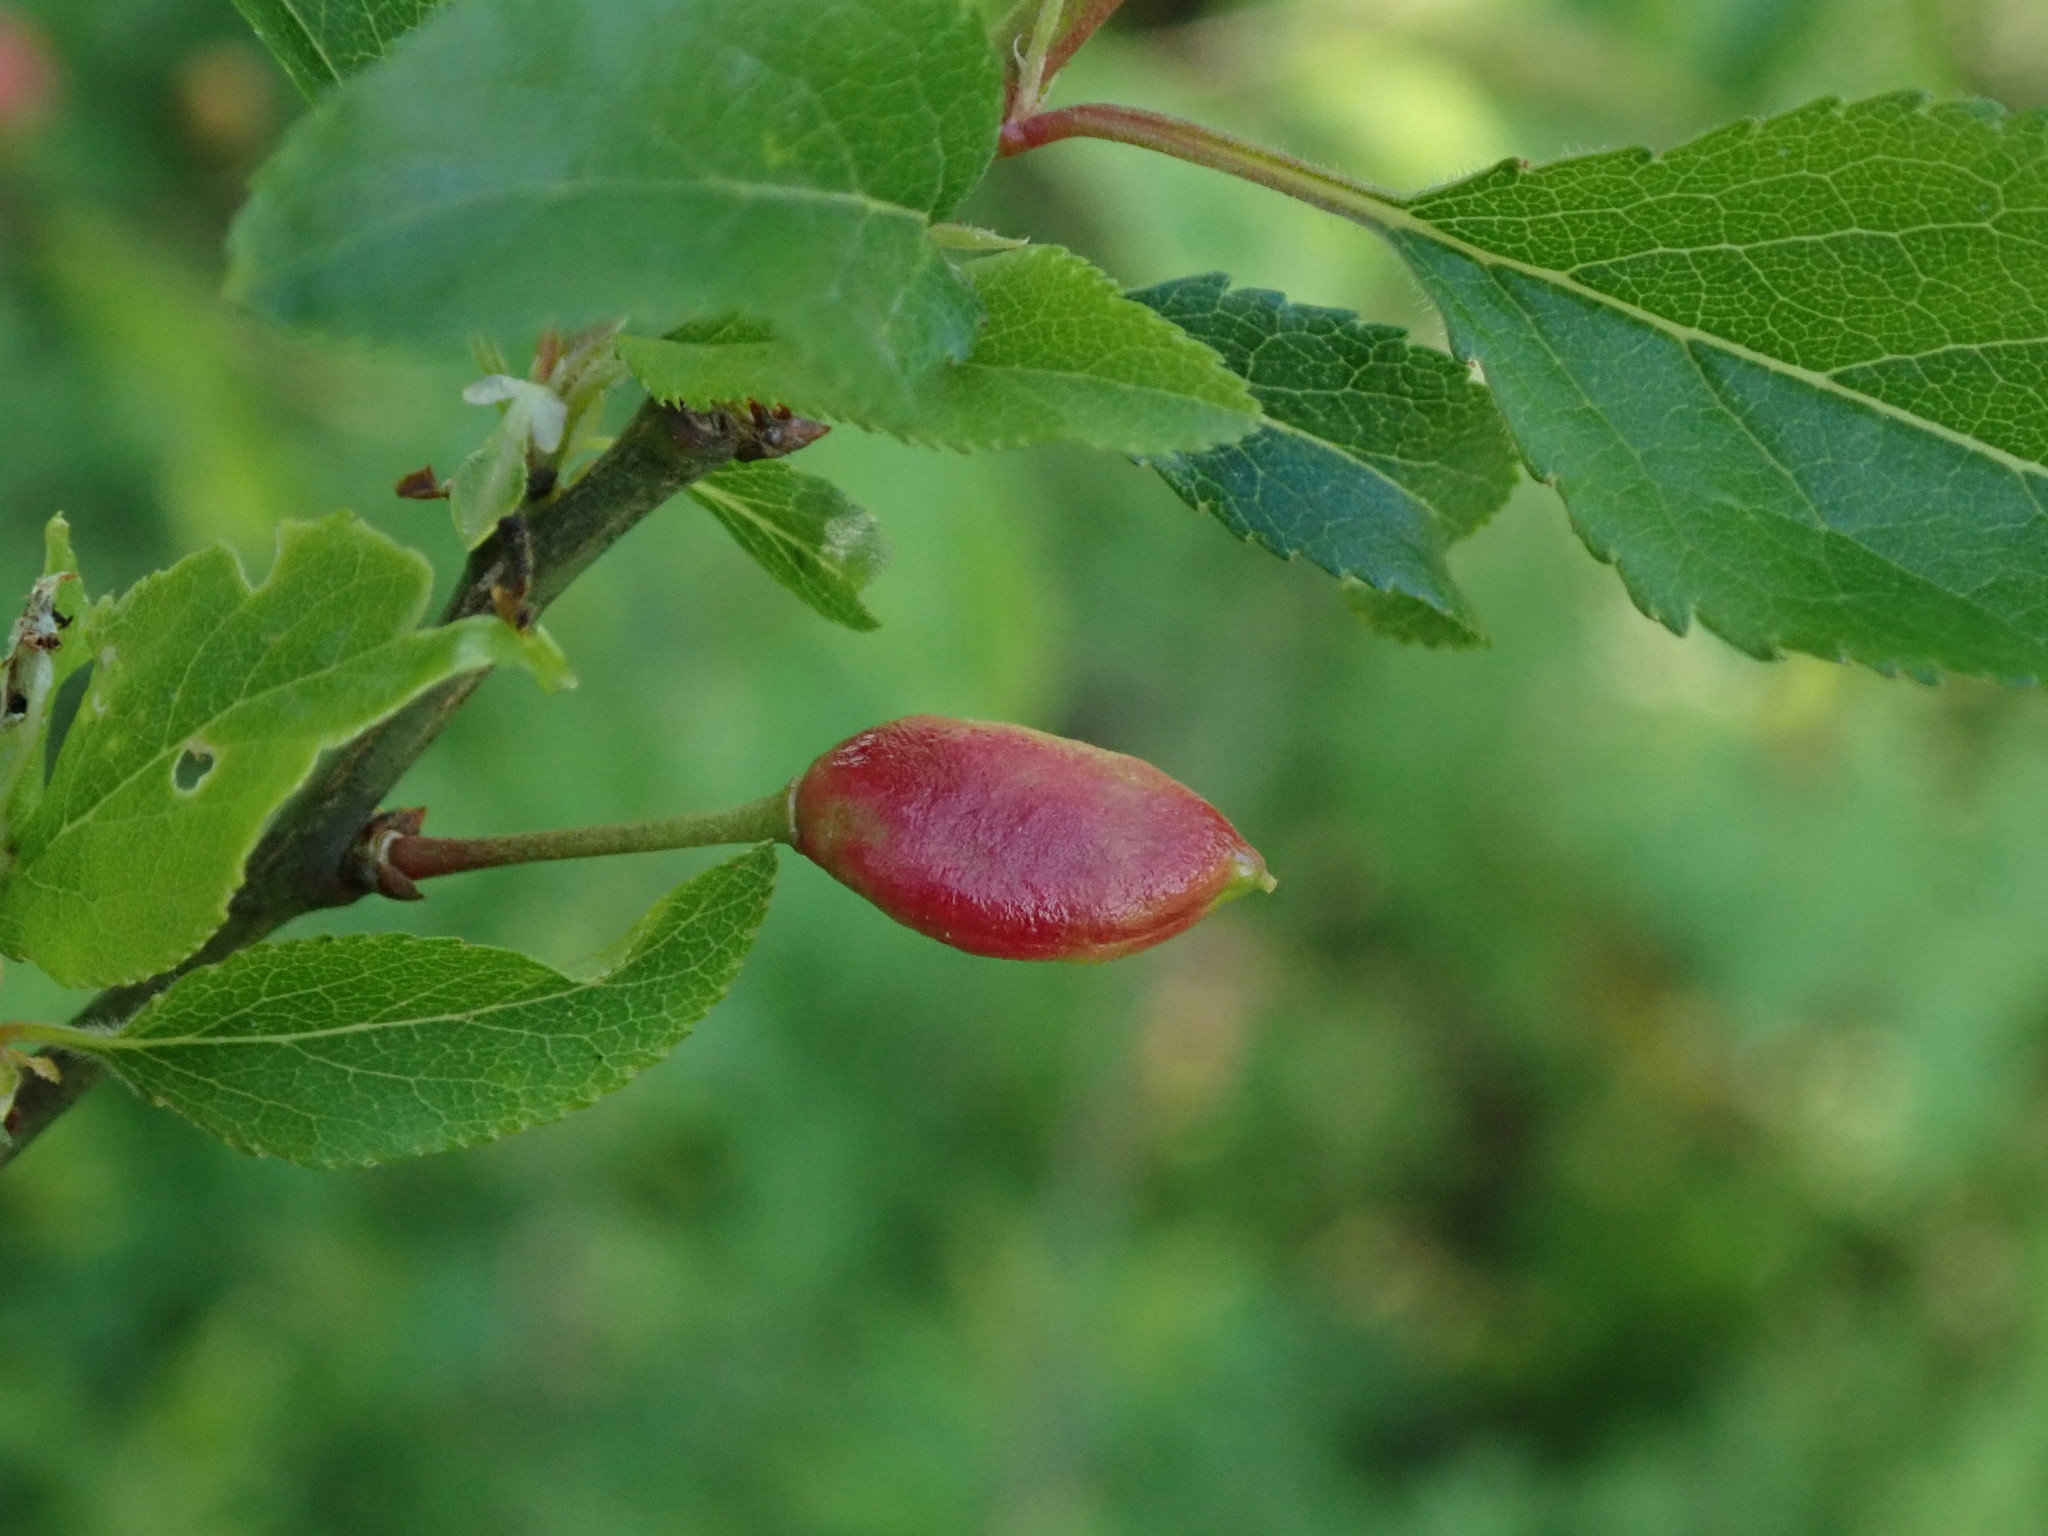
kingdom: Fungi
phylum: Ascomycota
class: Taphrinomycetes
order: Taphrinales
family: Taphrinaceae
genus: Taphrina
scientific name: Taphrina pruni
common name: Pocket plum
